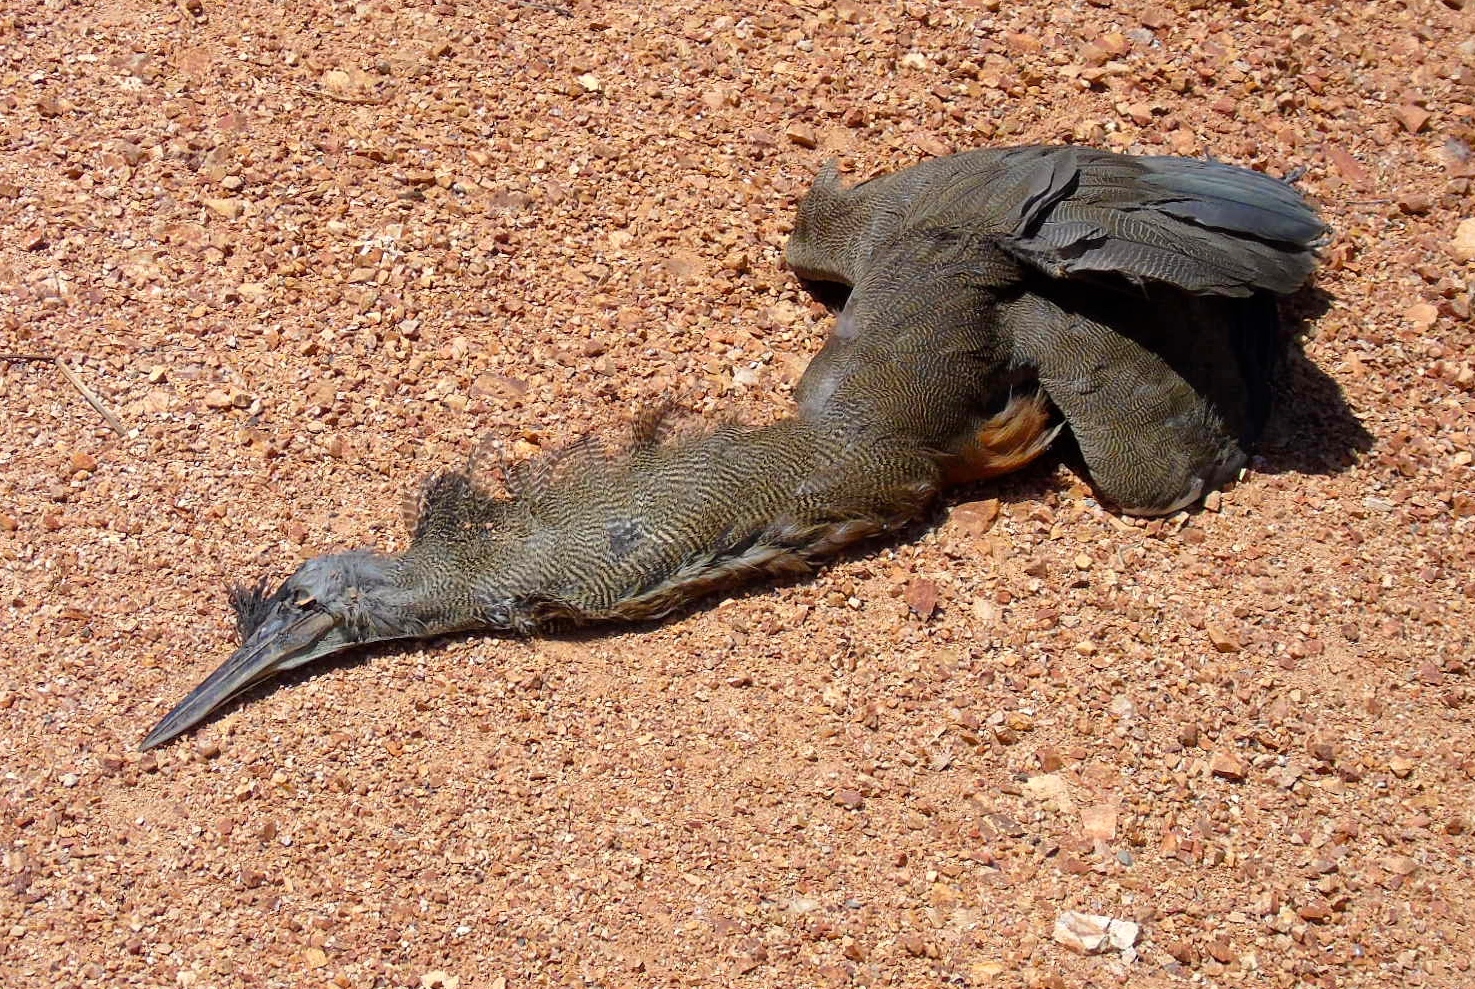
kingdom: Animalia
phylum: Chordata
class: Aves
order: Pelecaniformes
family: Ardeidae
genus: Tigrisoma
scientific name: Tigrisoma mexicanum
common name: Bare-throated tiger-heron
